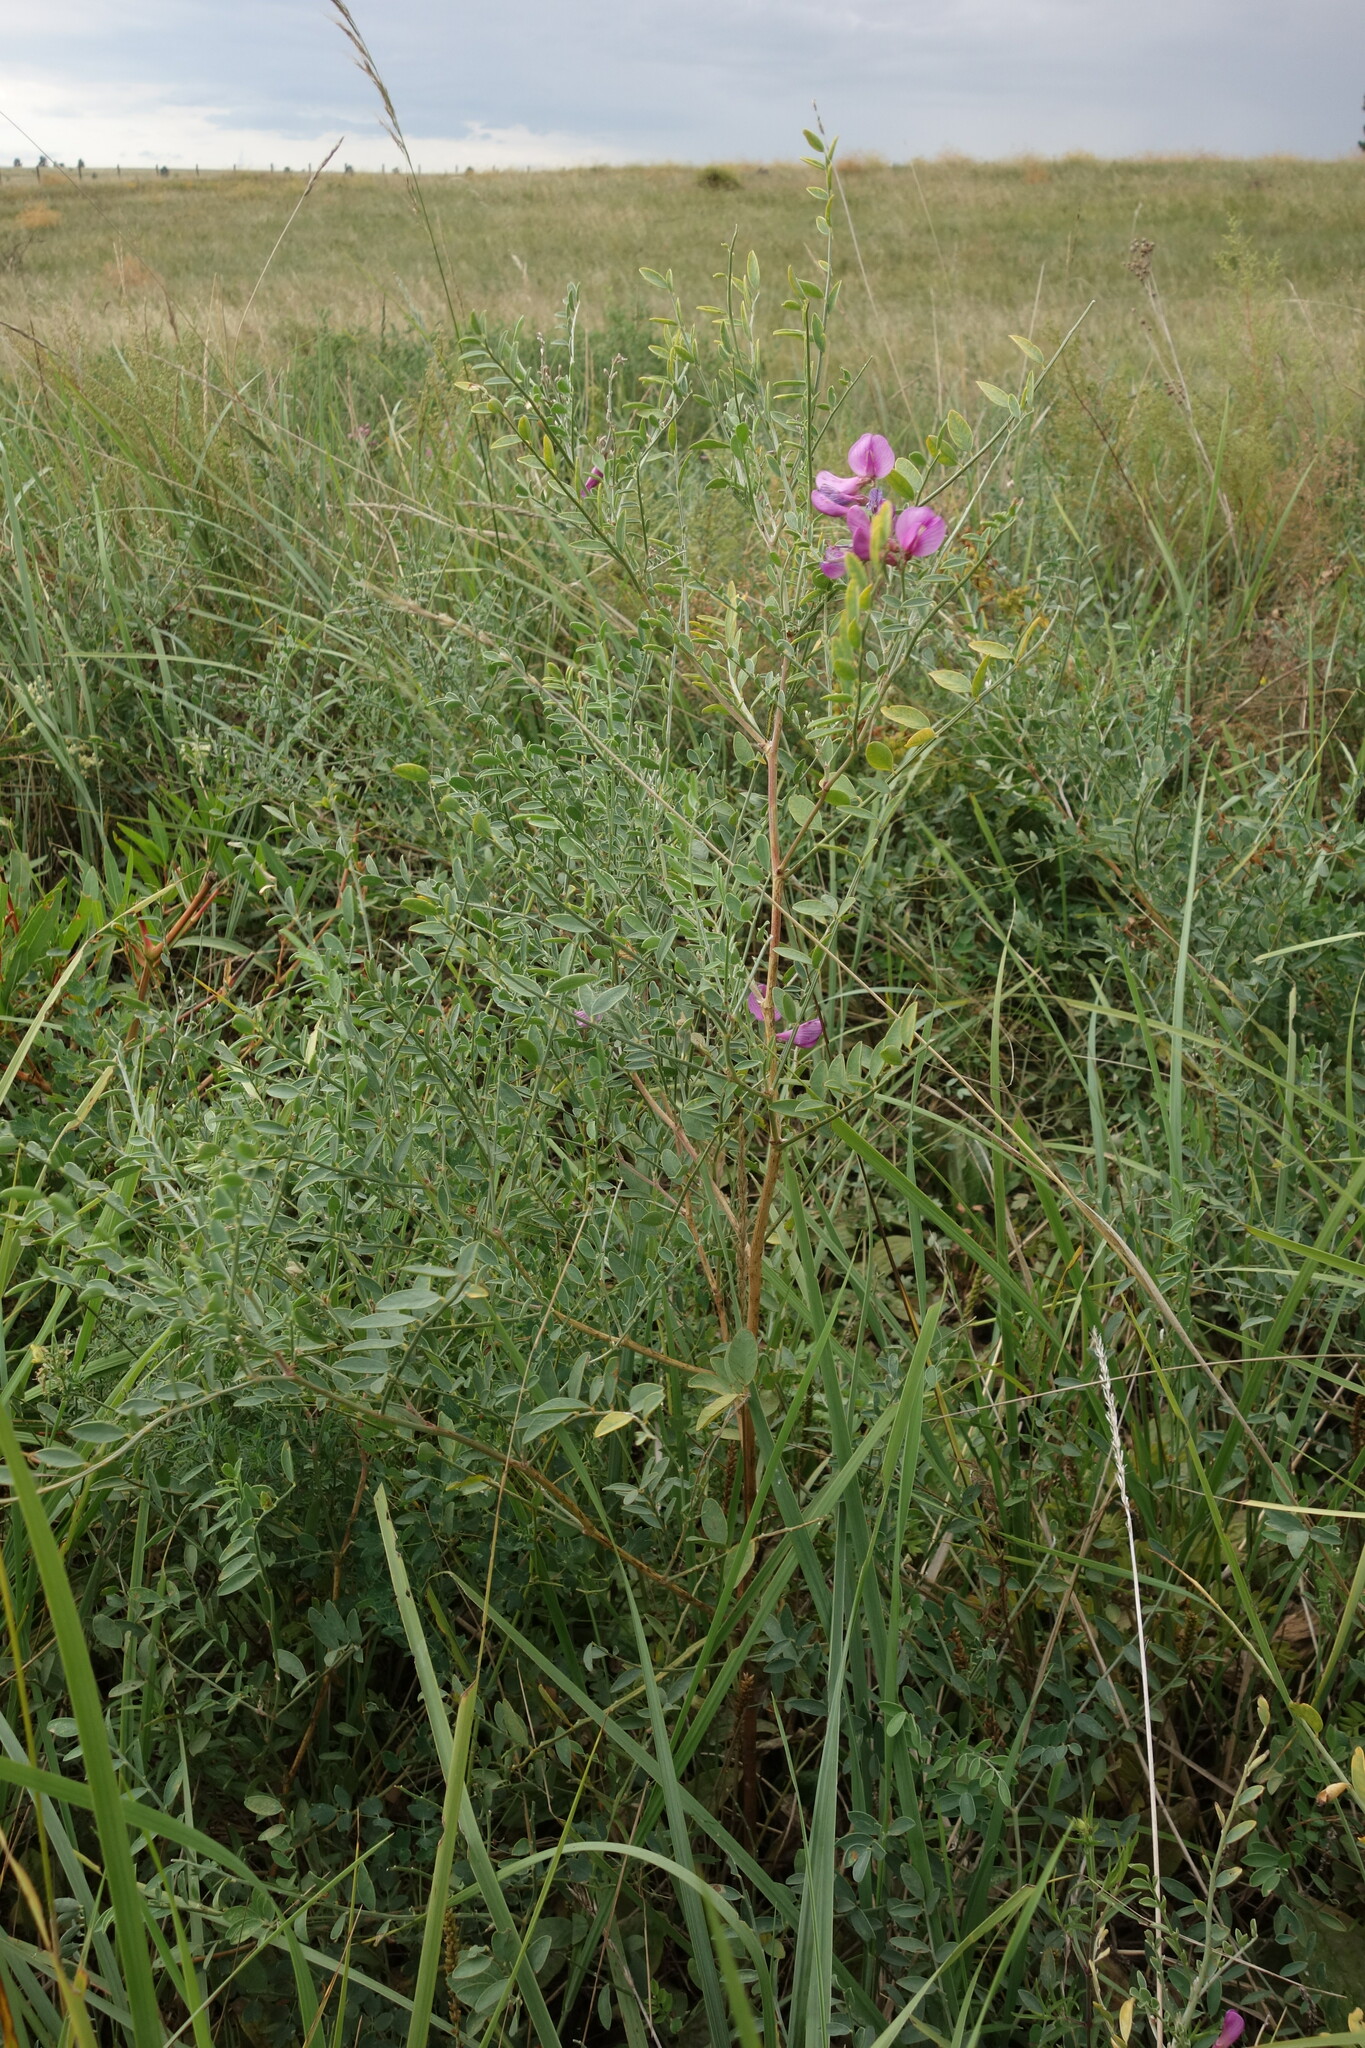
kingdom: Plantae
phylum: Tracheophyta
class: Magnoliopsida
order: Fabales
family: Fabaceae
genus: Corethrodendron
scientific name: Corethrodendron fruticosum
